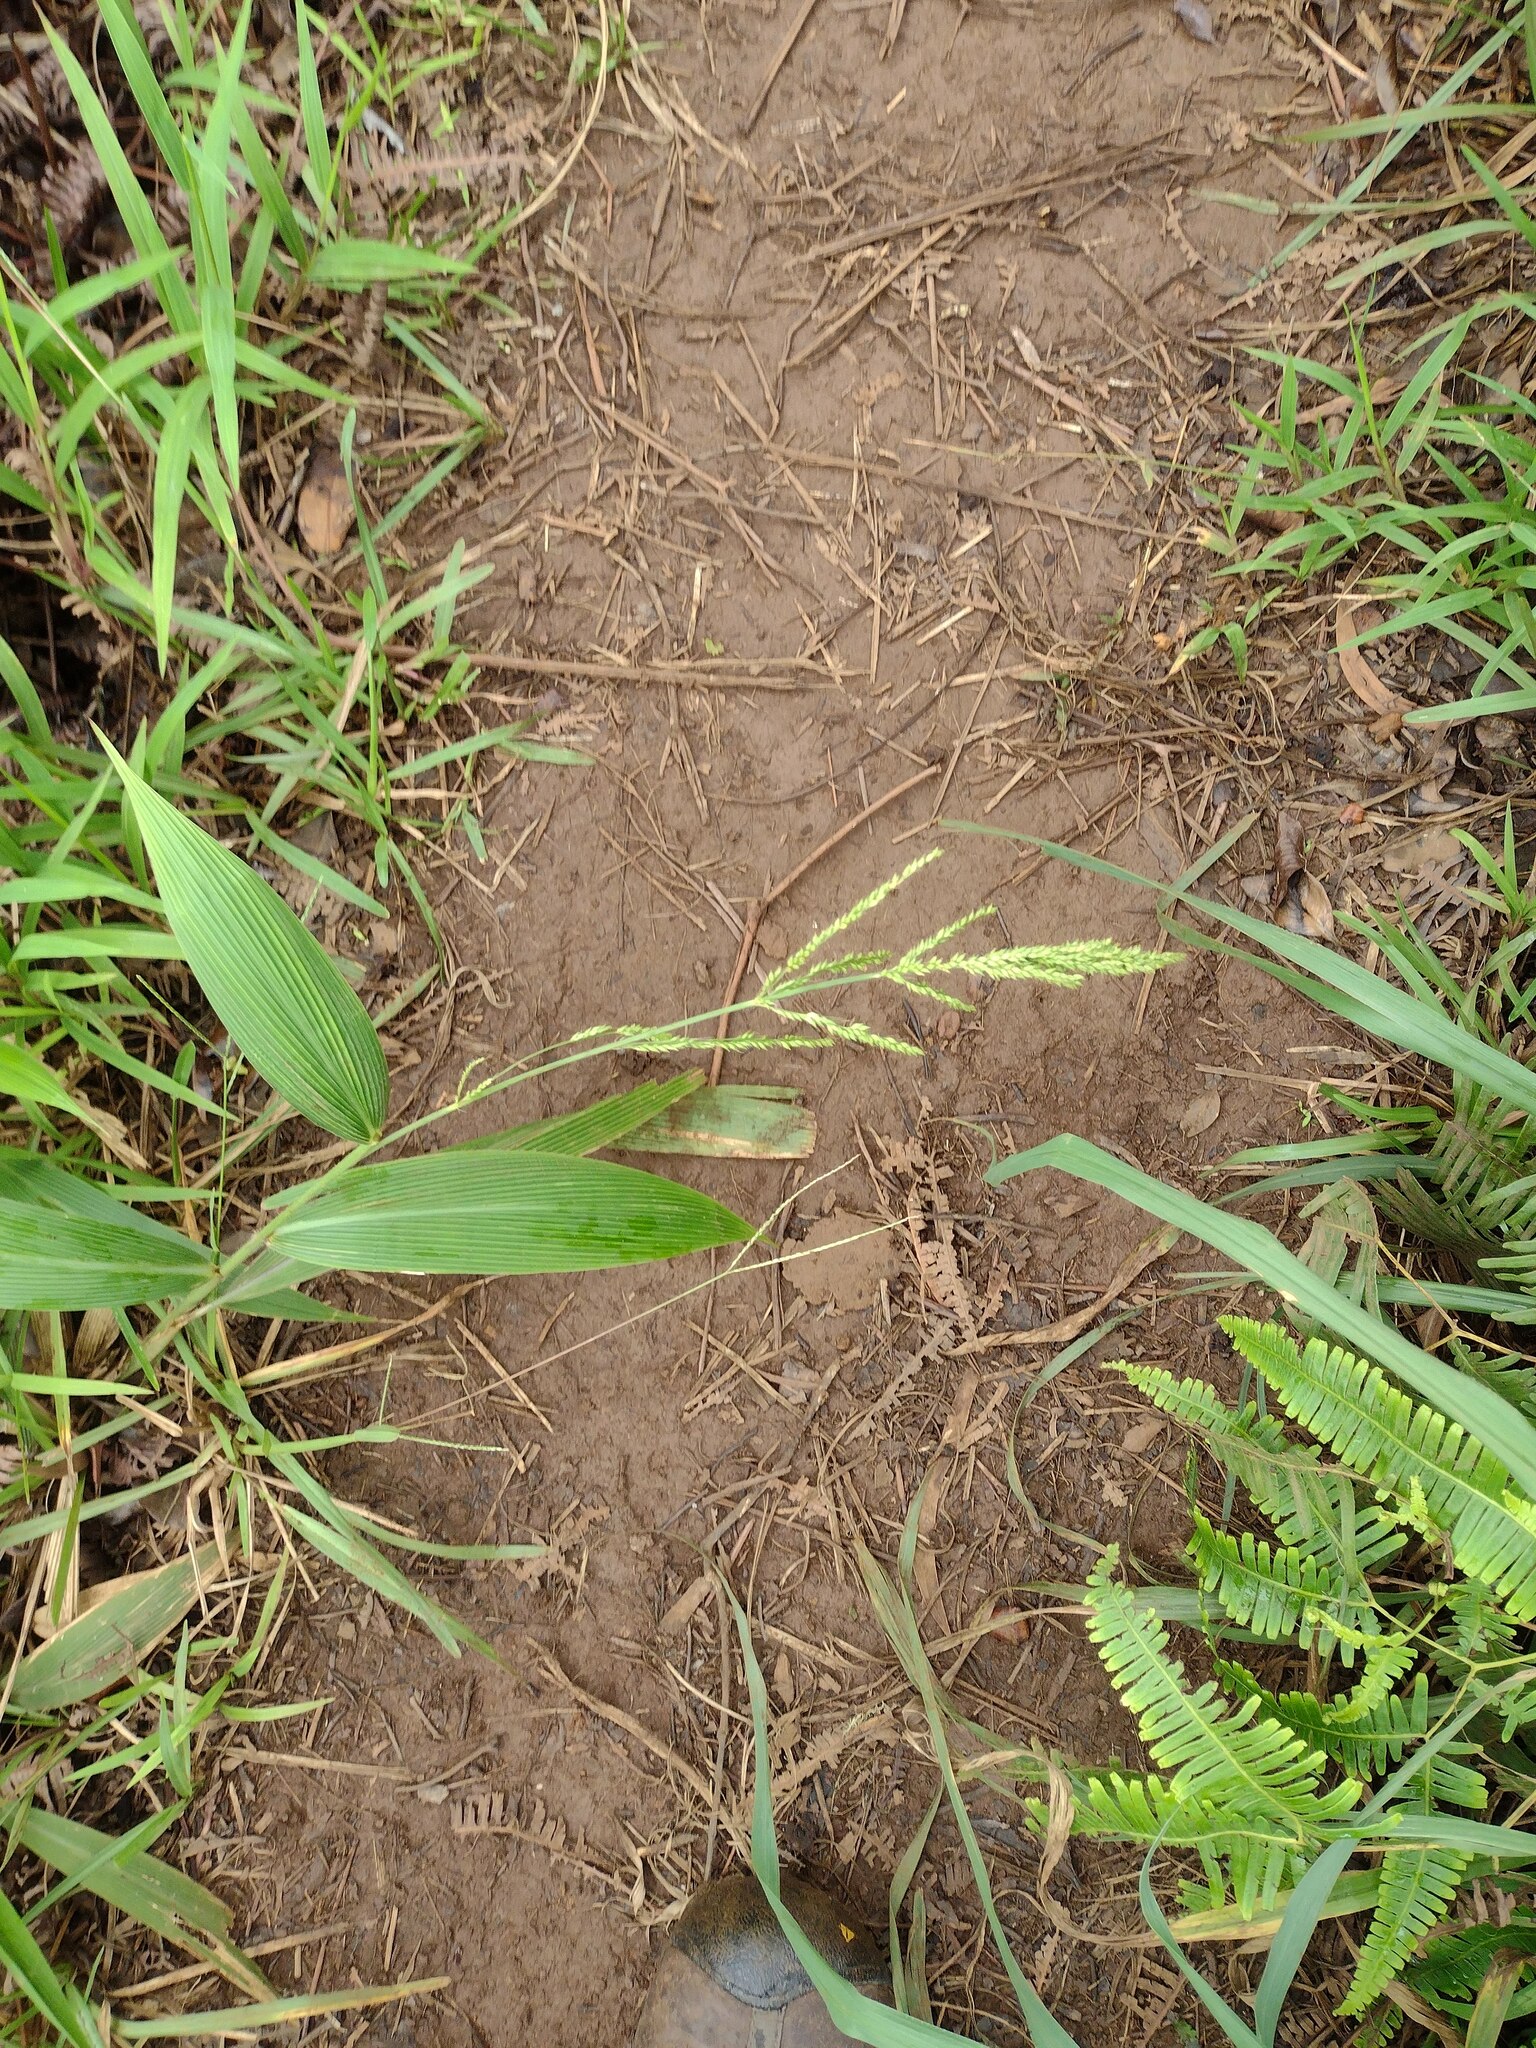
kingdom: Plantae
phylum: Tracheophyta
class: Liliopsida
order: Poales
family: Poaceae
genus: Setaria
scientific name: Setaria palmifolia
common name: Broadleaved bristlegrass
